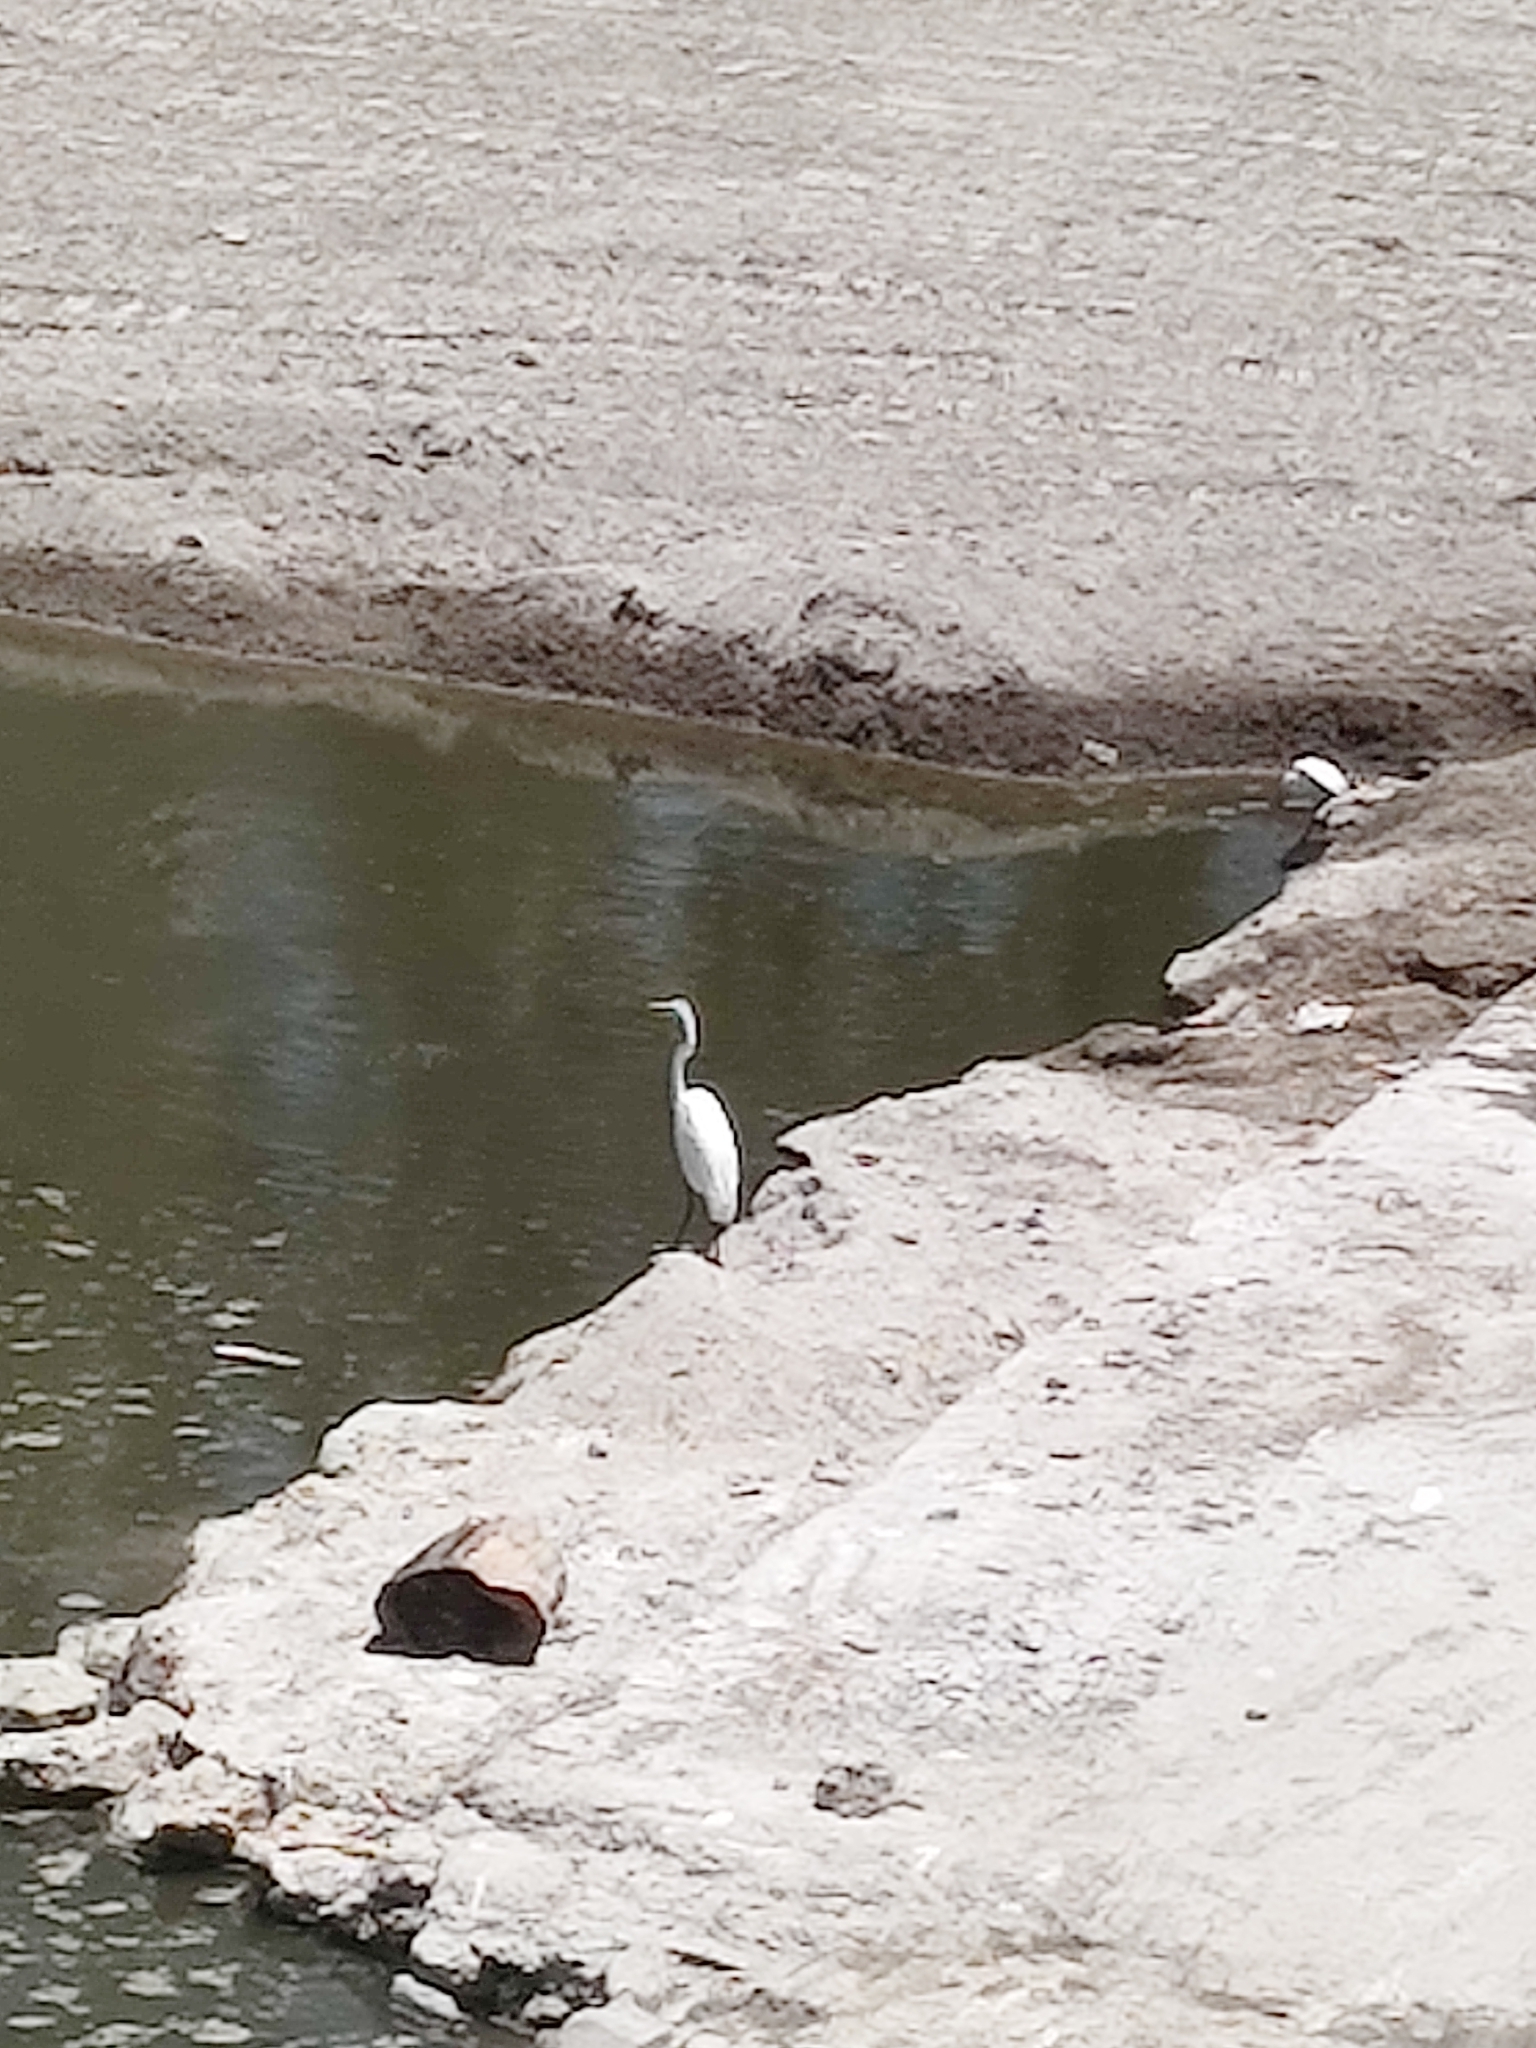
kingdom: Animalia
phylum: Chordata
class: Aves
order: Pelecaniformes
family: Ardeidae
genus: Egretta
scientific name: Egretta thula
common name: Snowy egret
